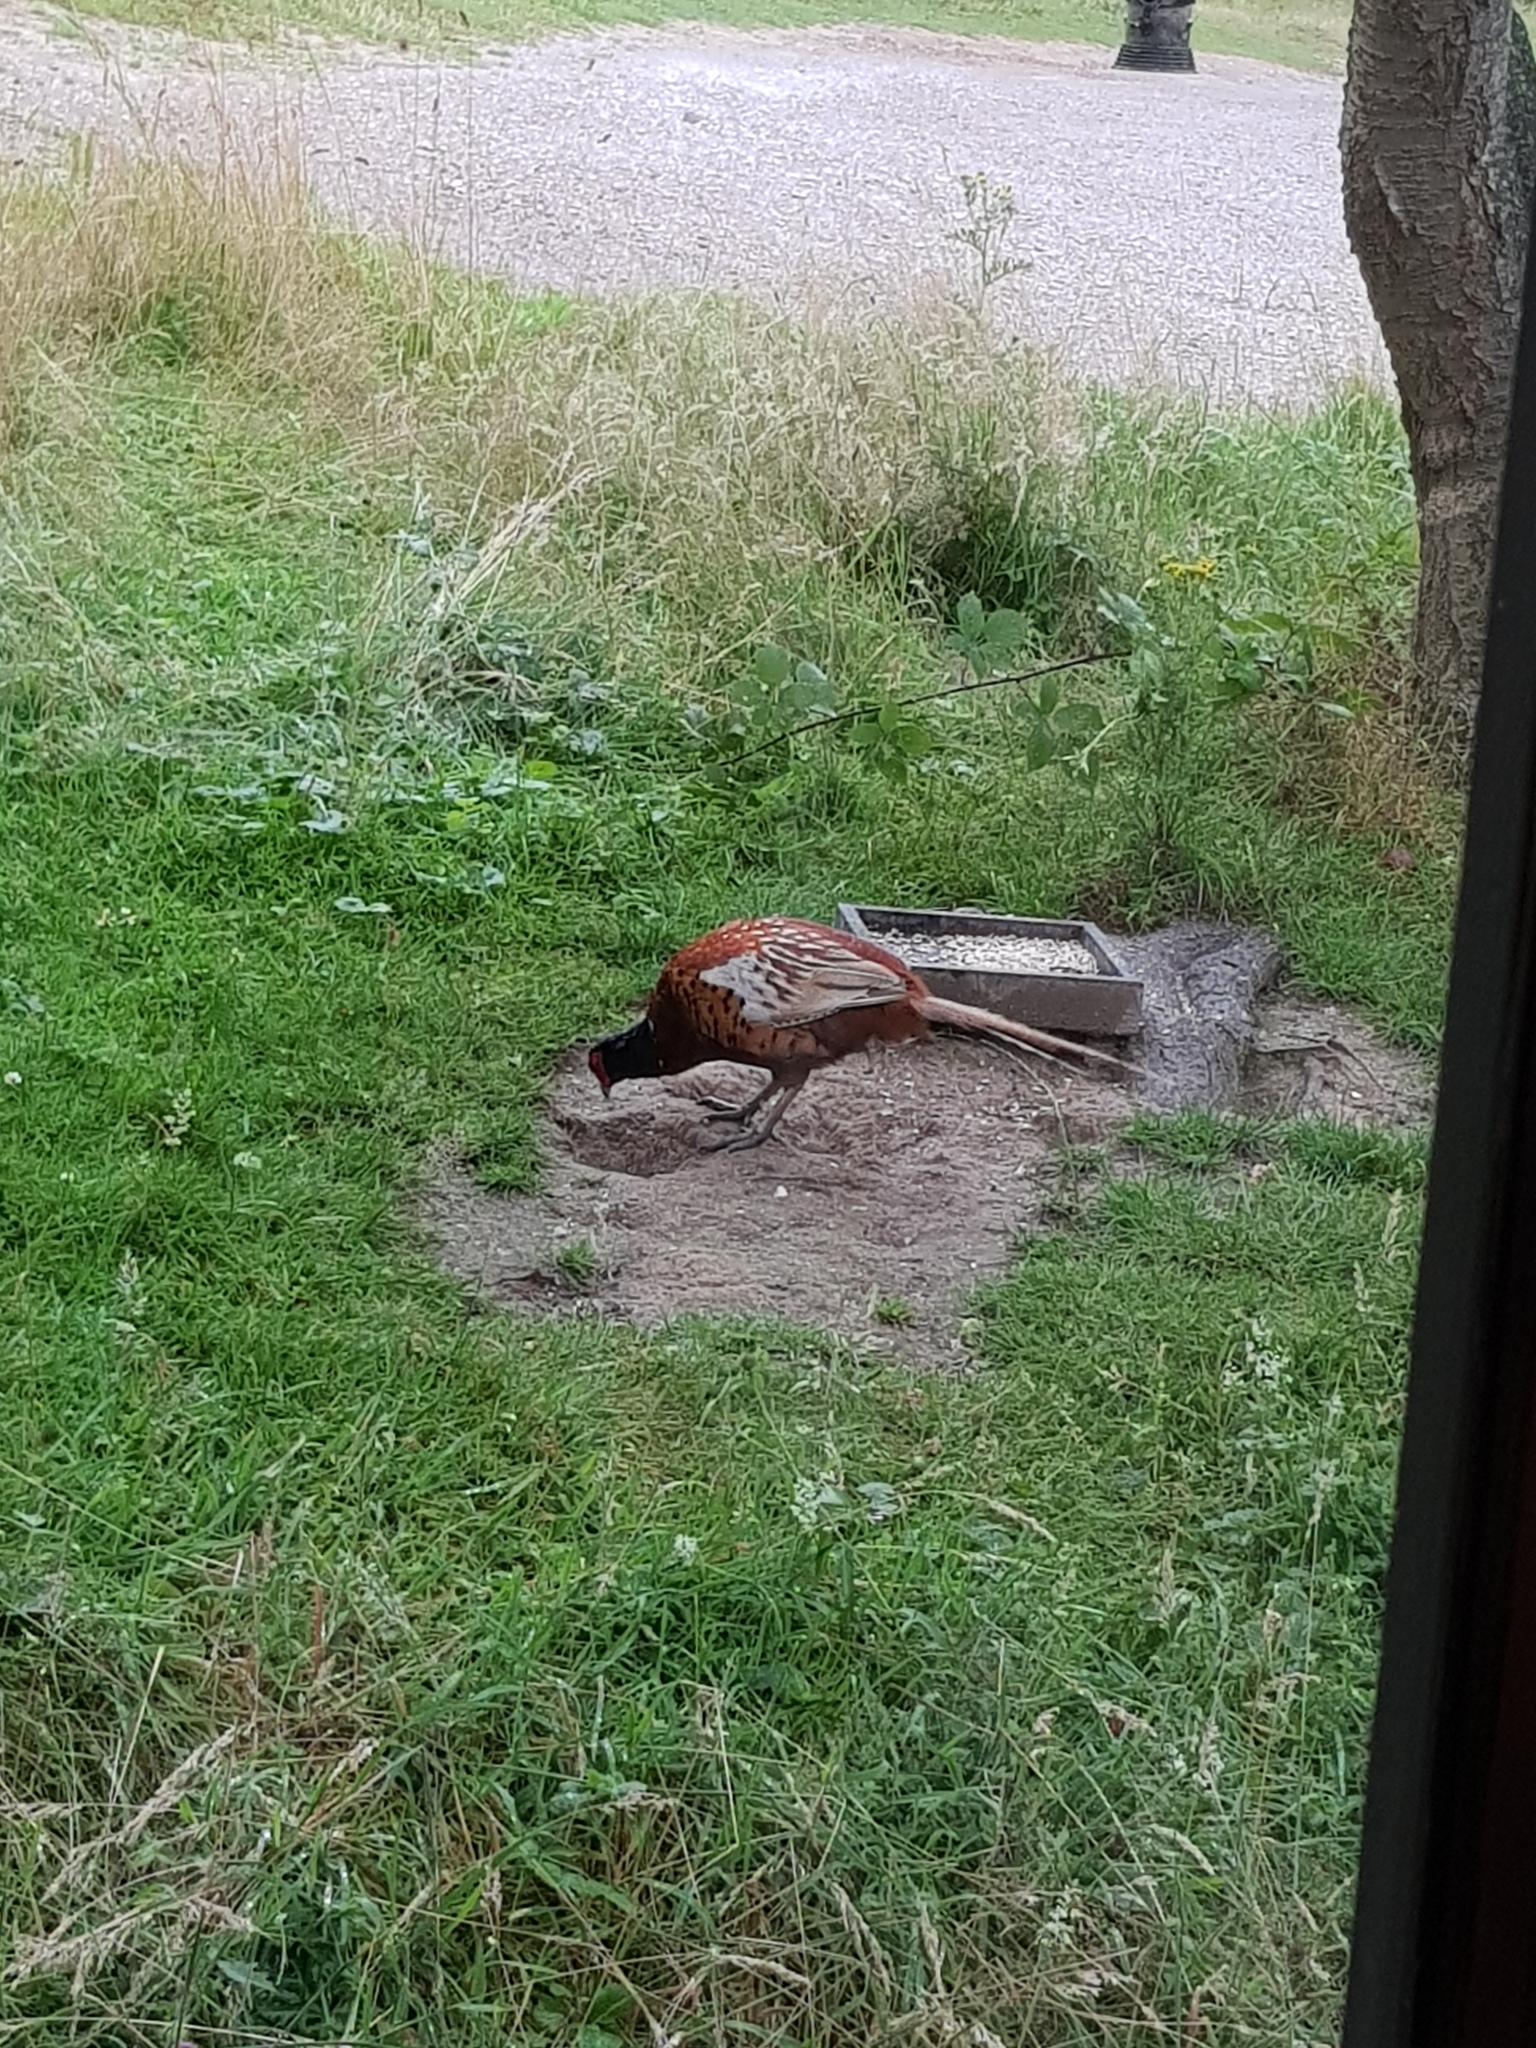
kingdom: Animalia
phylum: Chordata
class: Aves
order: Galliformes
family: Phasianidae
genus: Phasianus
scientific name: Phasianus colchicus
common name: Common pheasant
